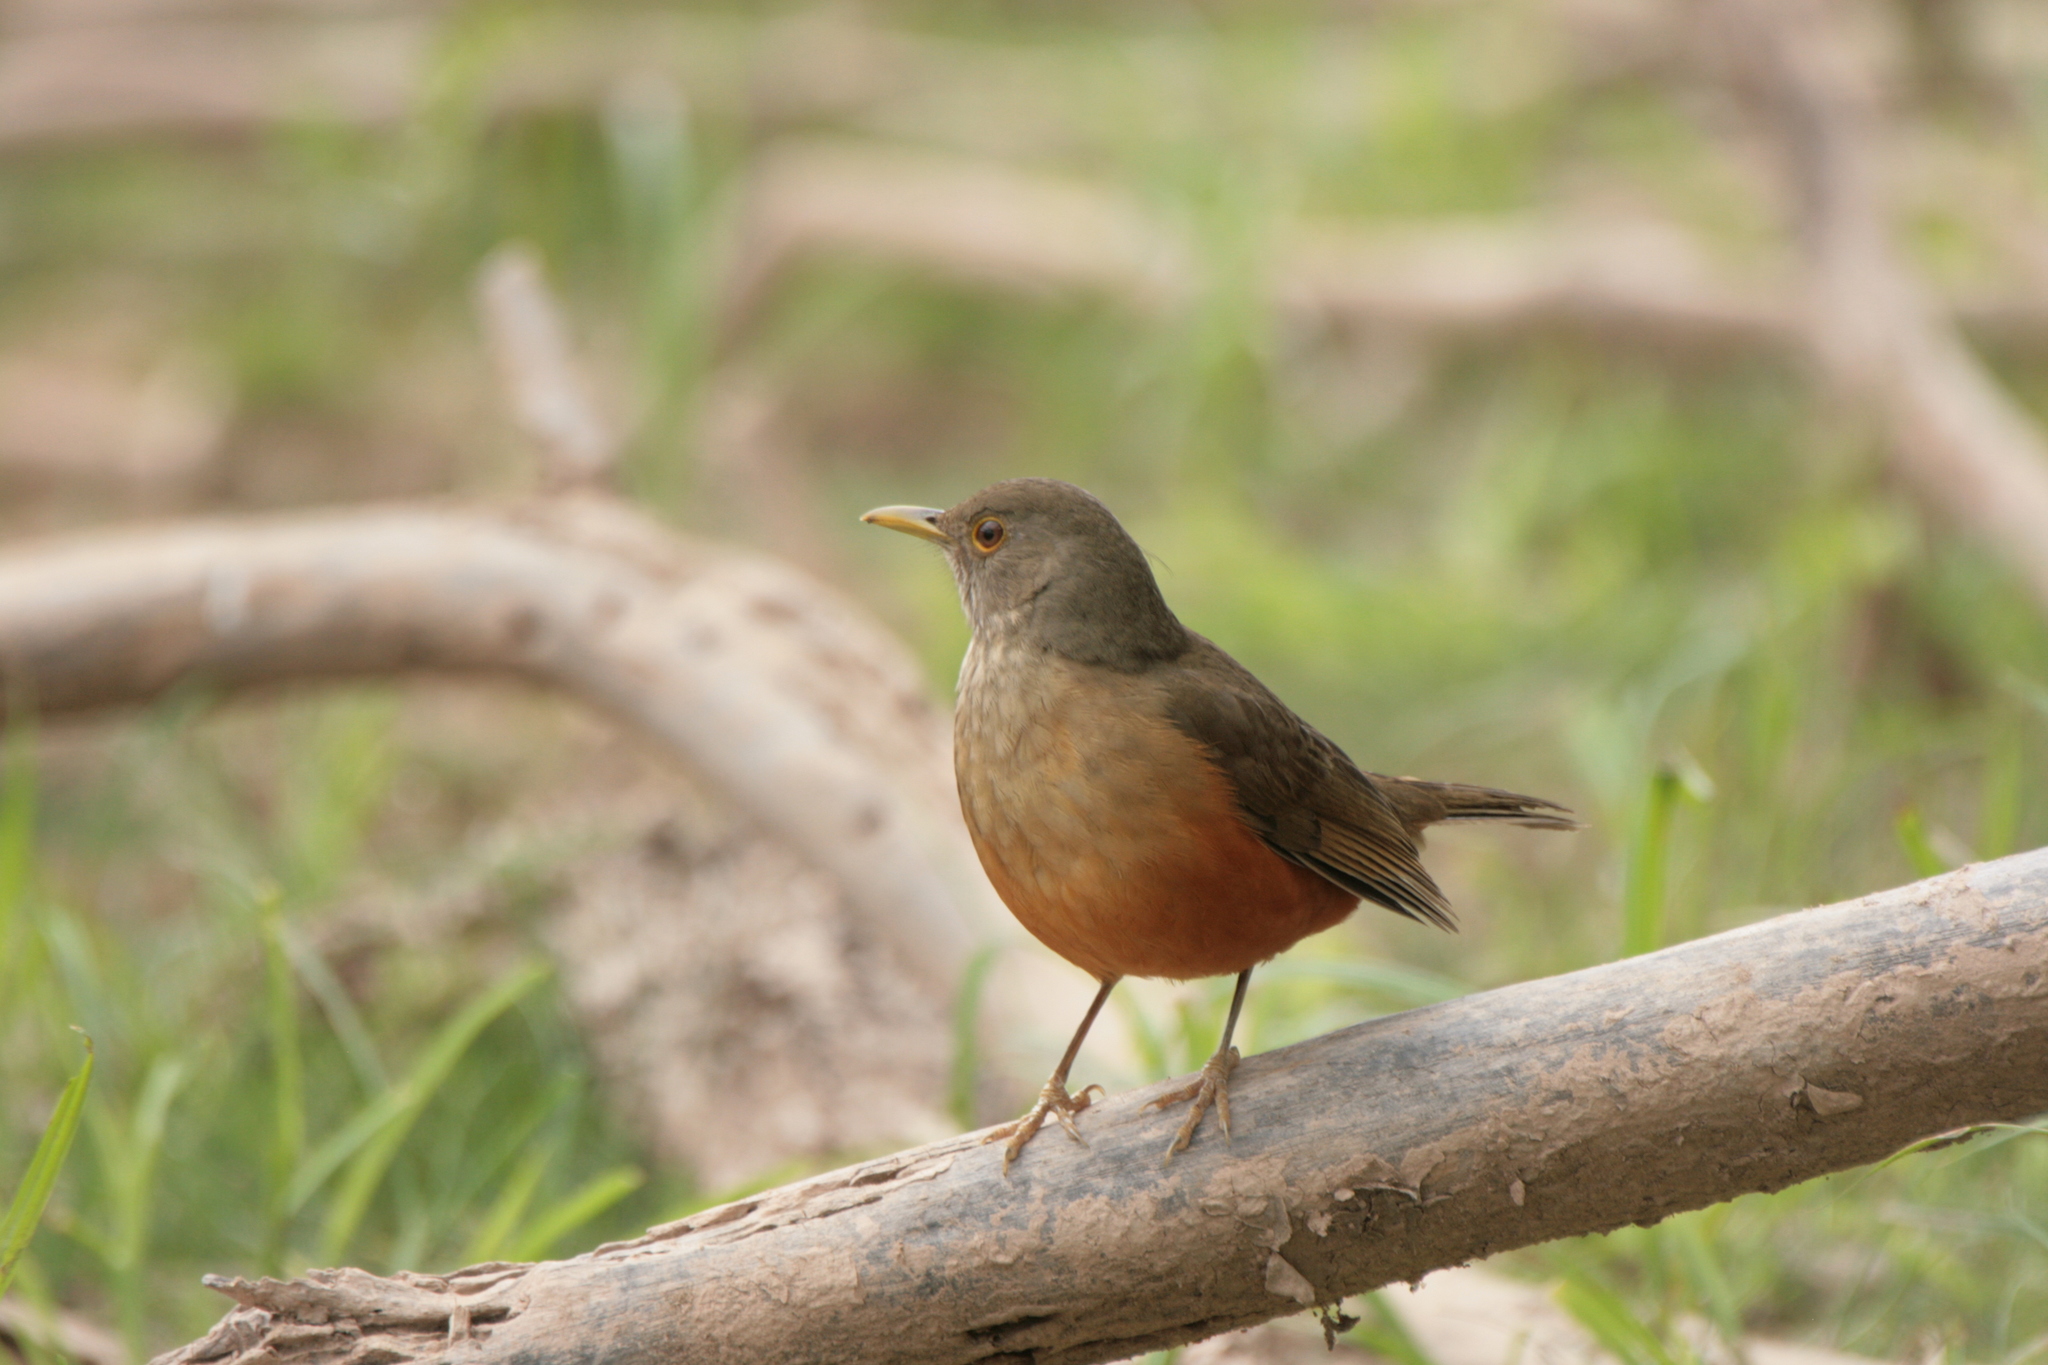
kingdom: Animalia
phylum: Chordata
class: Aves
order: Passeriformes
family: Turdidae
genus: Turdus
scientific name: Turdus rufiventris
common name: Rufous-bellied thrush
